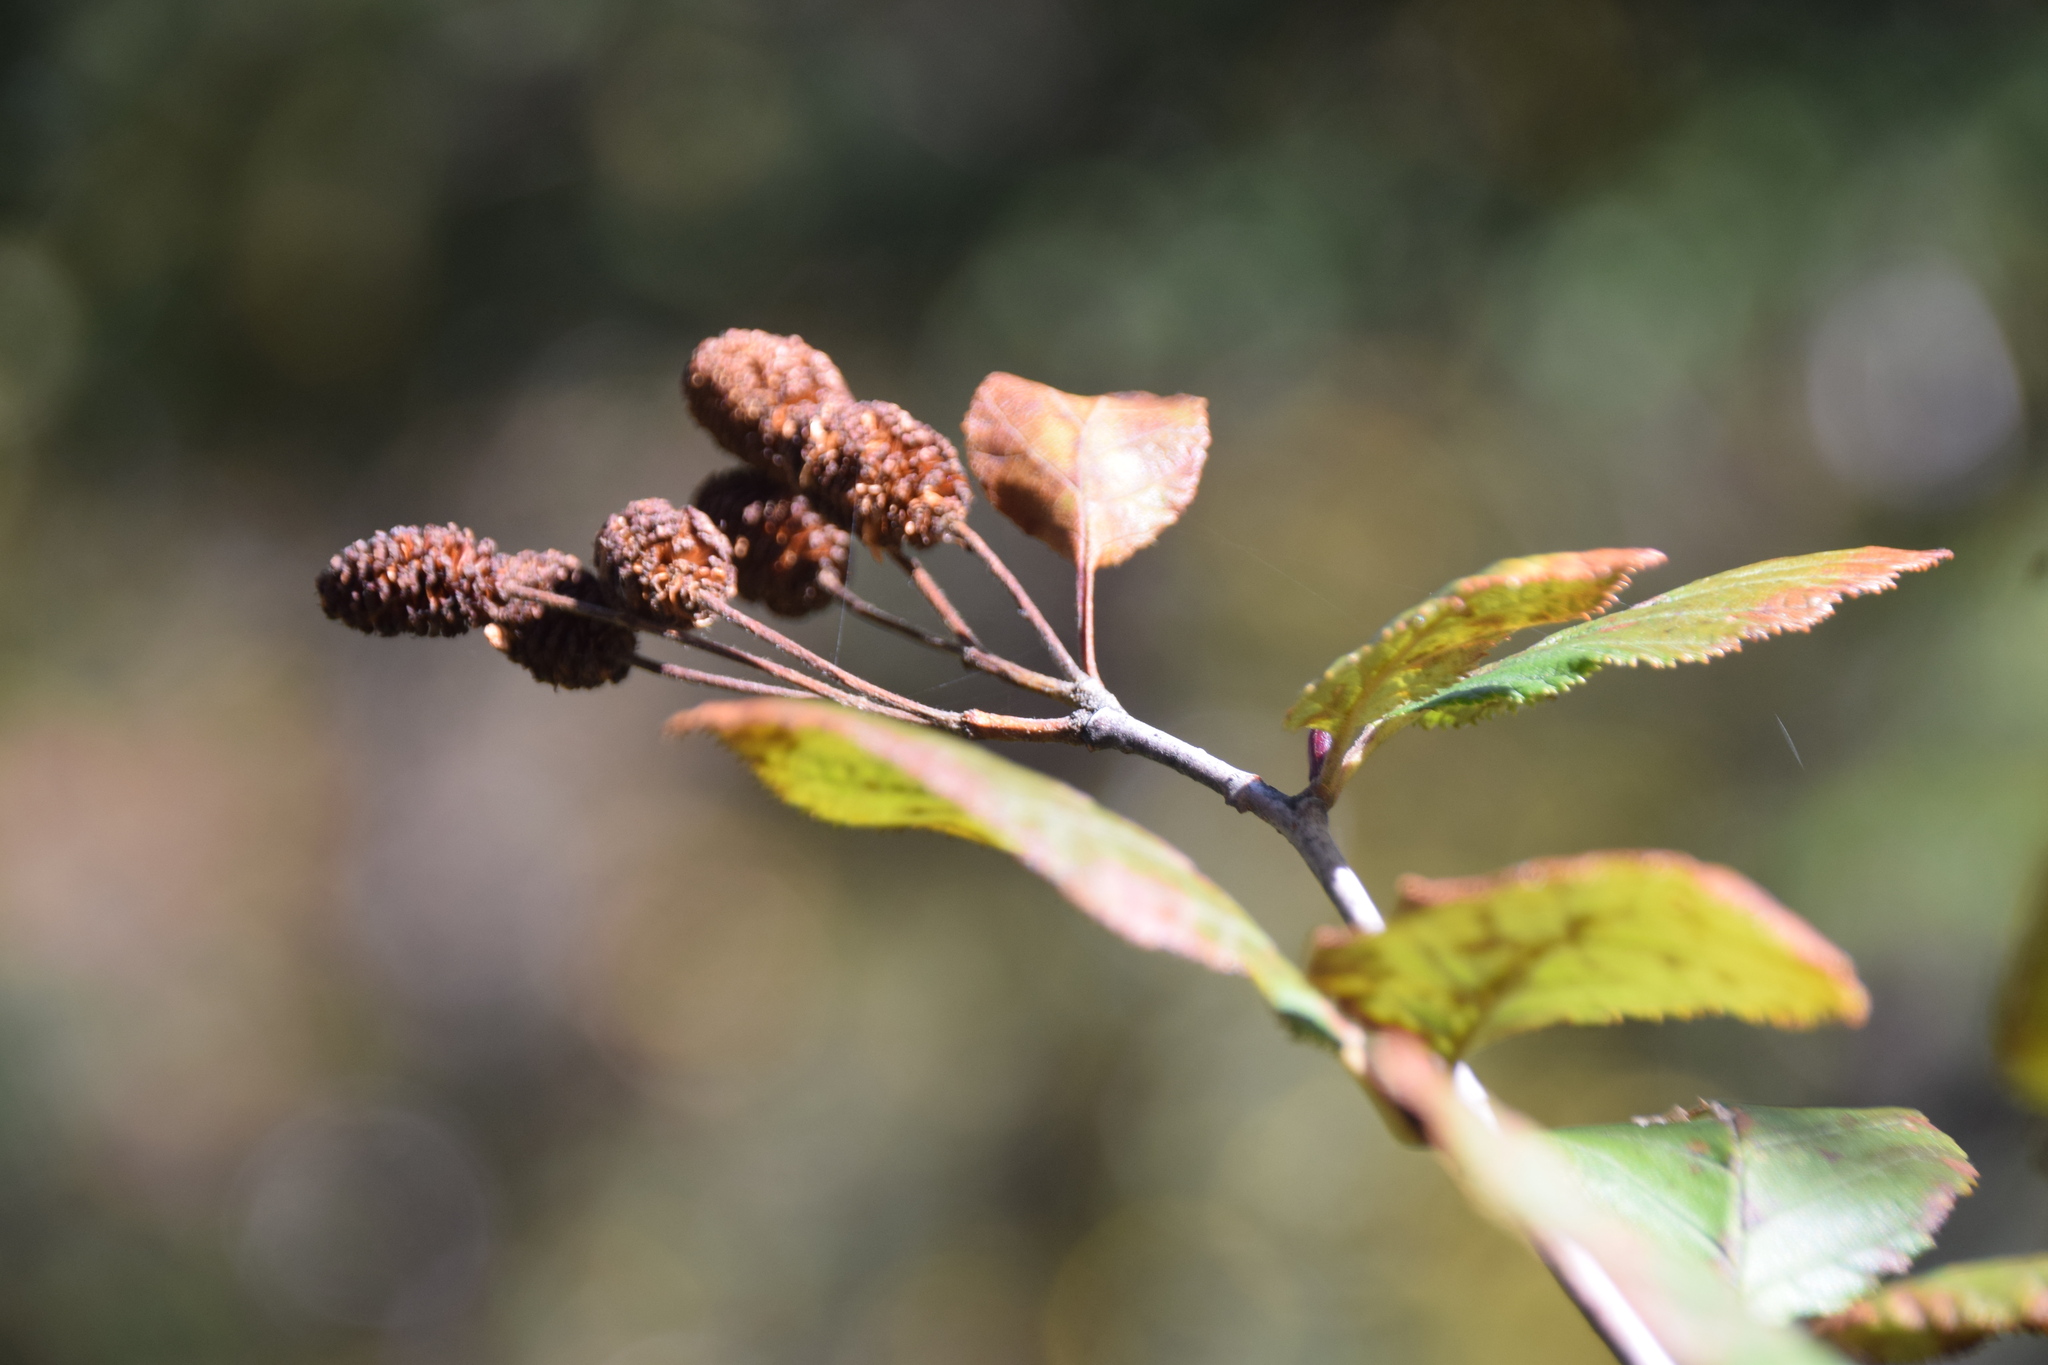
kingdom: Plantae
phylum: Tracheophyta
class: Magnoliopsida
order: Fagales
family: Betulaceae
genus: Alnus
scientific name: Alnus alnobetula
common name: Green alder
